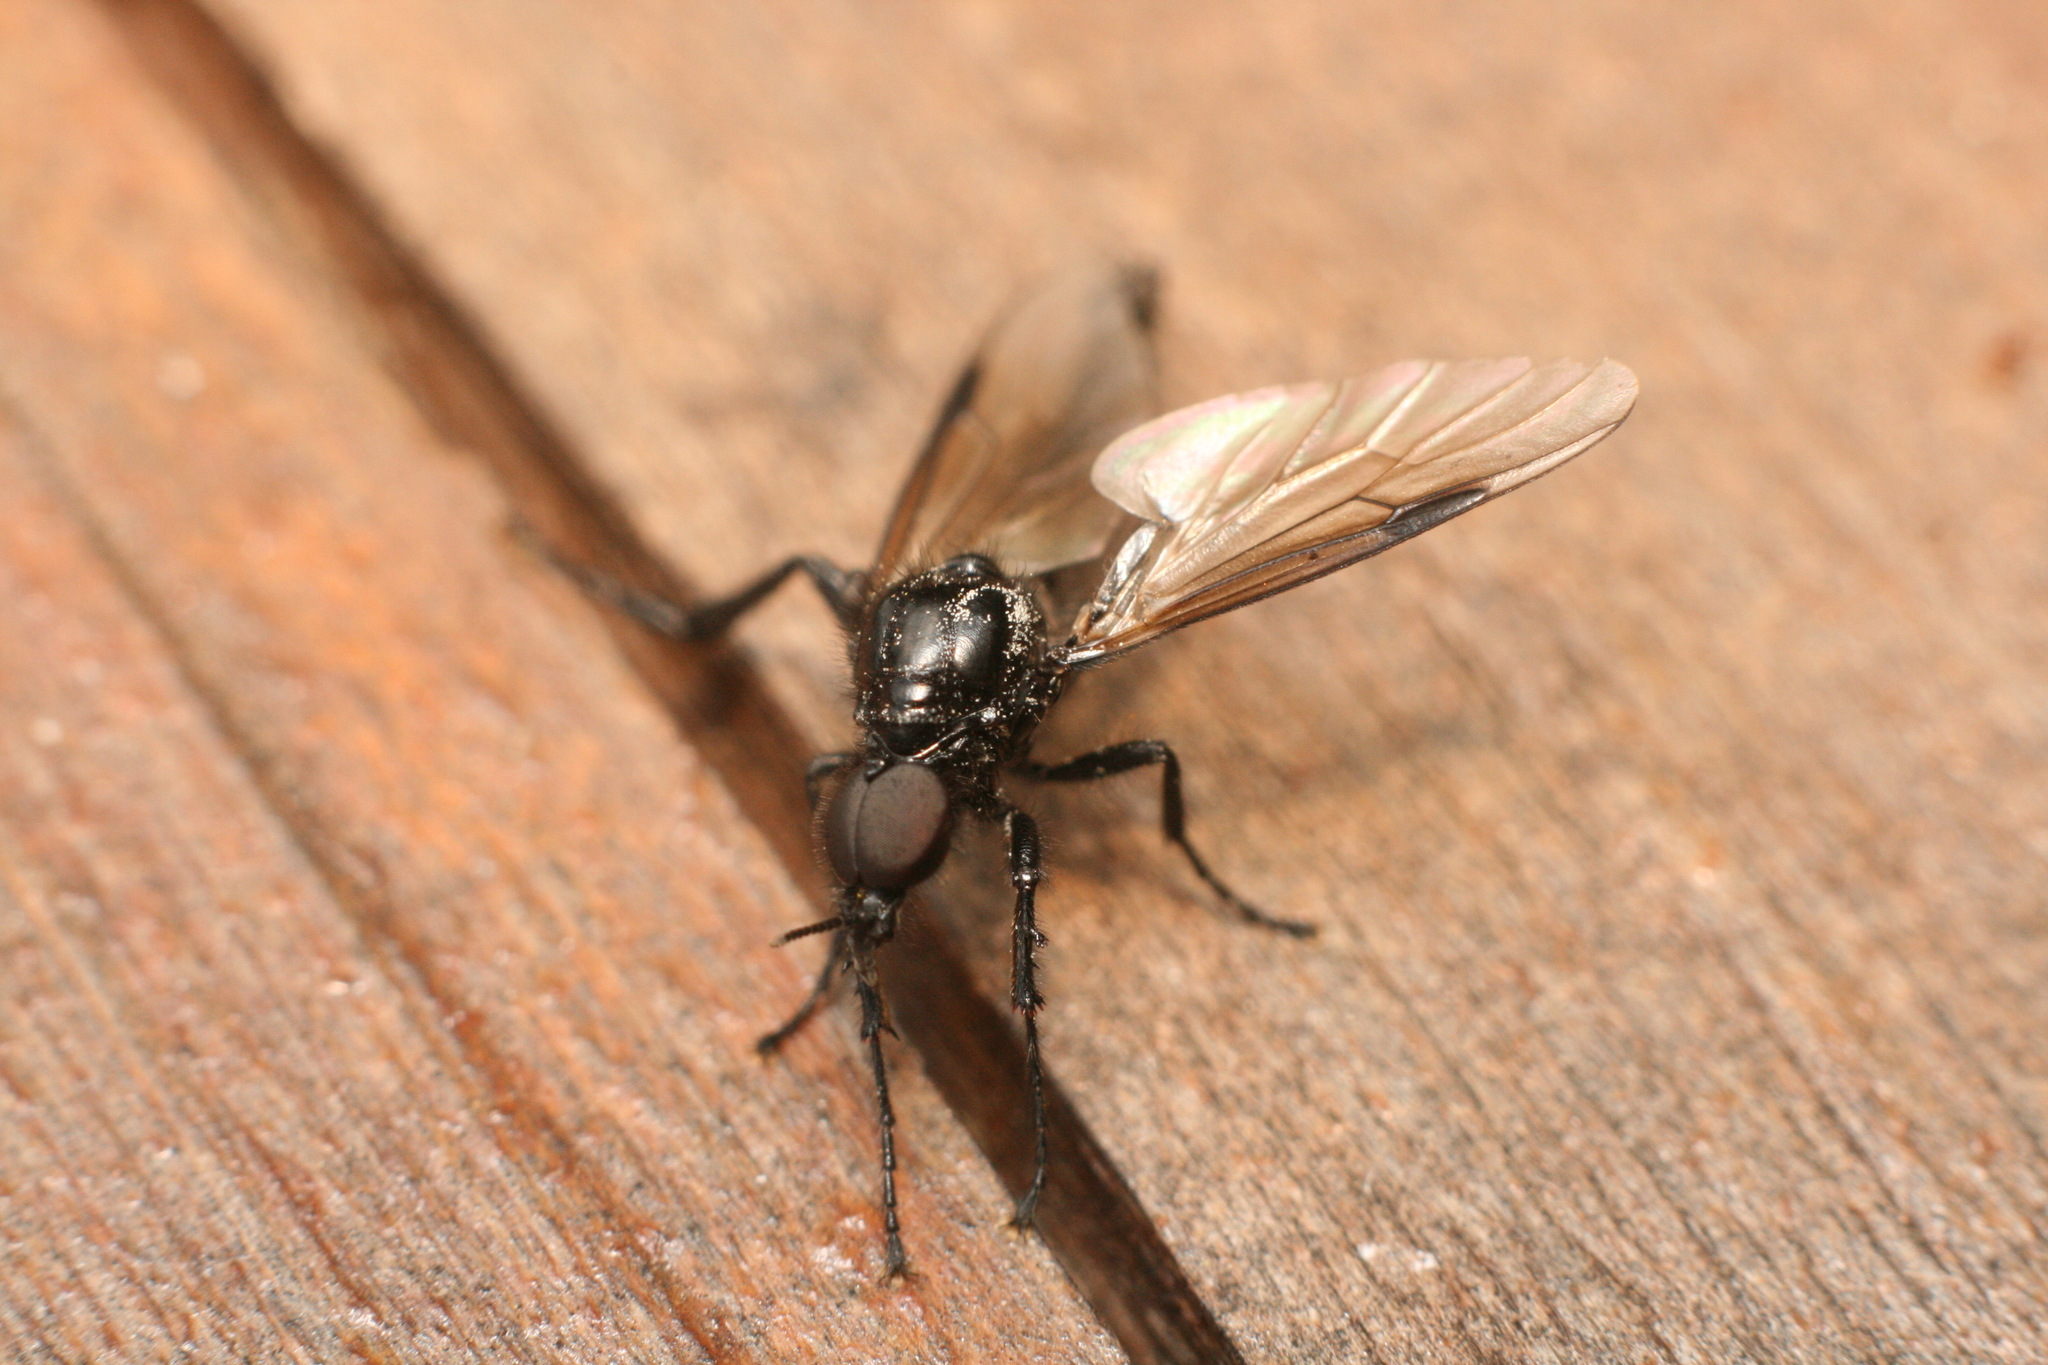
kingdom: Animalia
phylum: Arthropoda
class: Insecta
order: Diptera
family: Bibionidae
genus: Dilophus
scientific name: Dilophus nigrostigma
